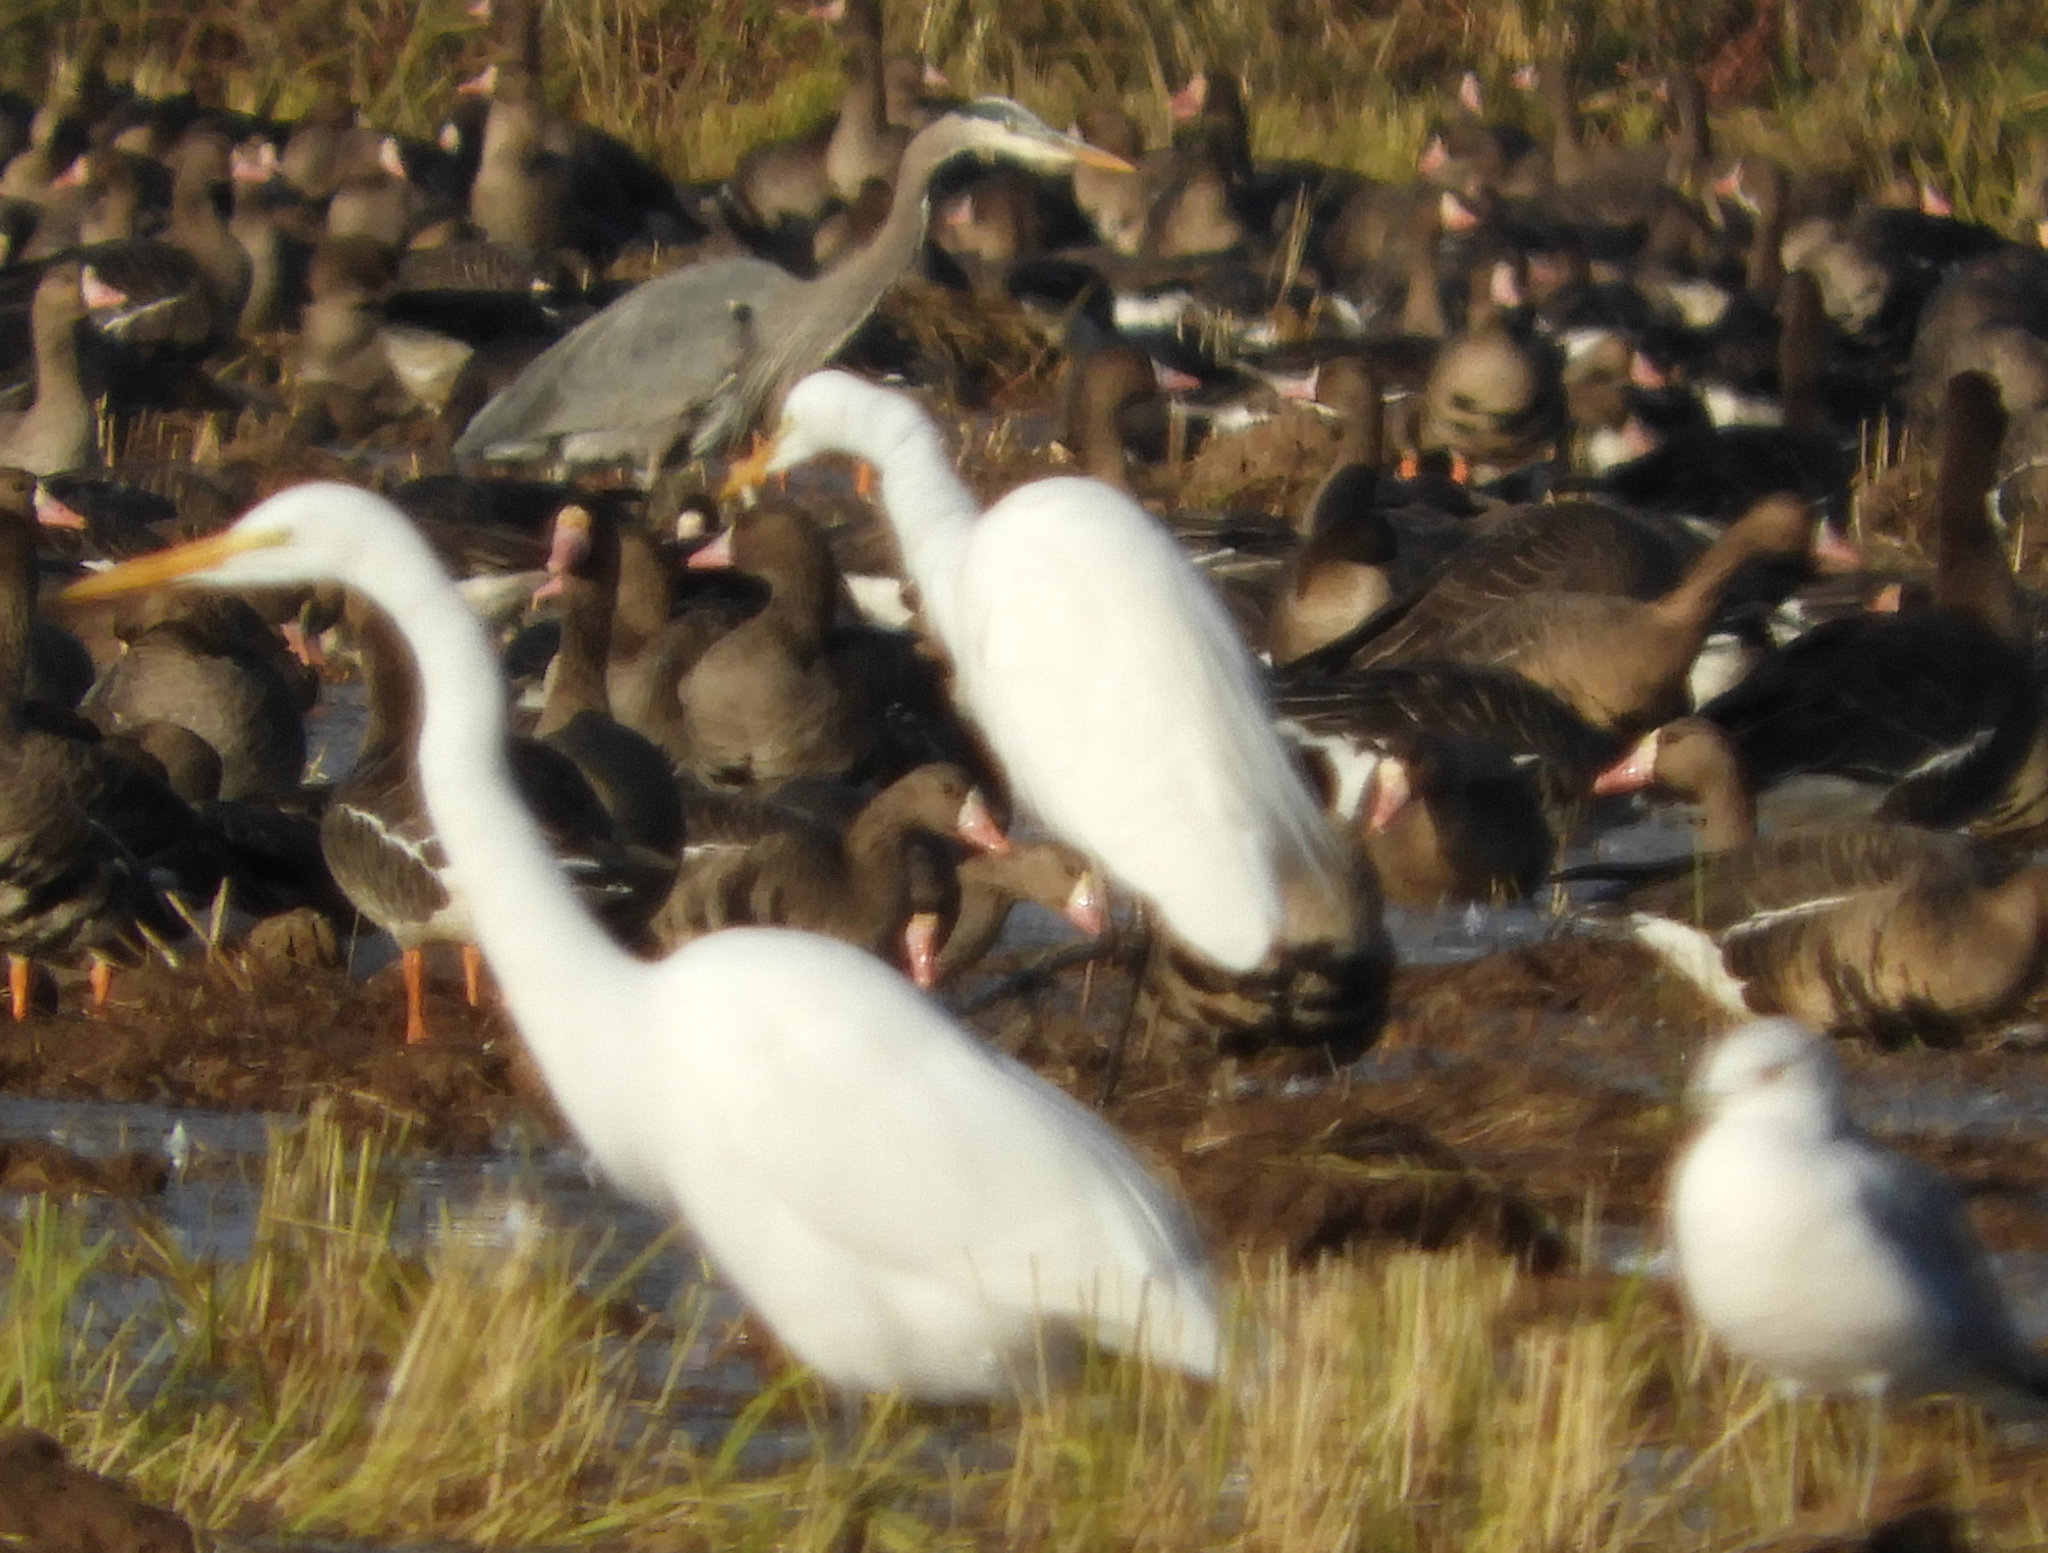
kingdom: Animalia
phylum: Chordata
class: Aves
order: Pelecaniformes
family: Ardeidae
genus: Ardea
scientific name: Ardea herodias
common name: Great blue heron
